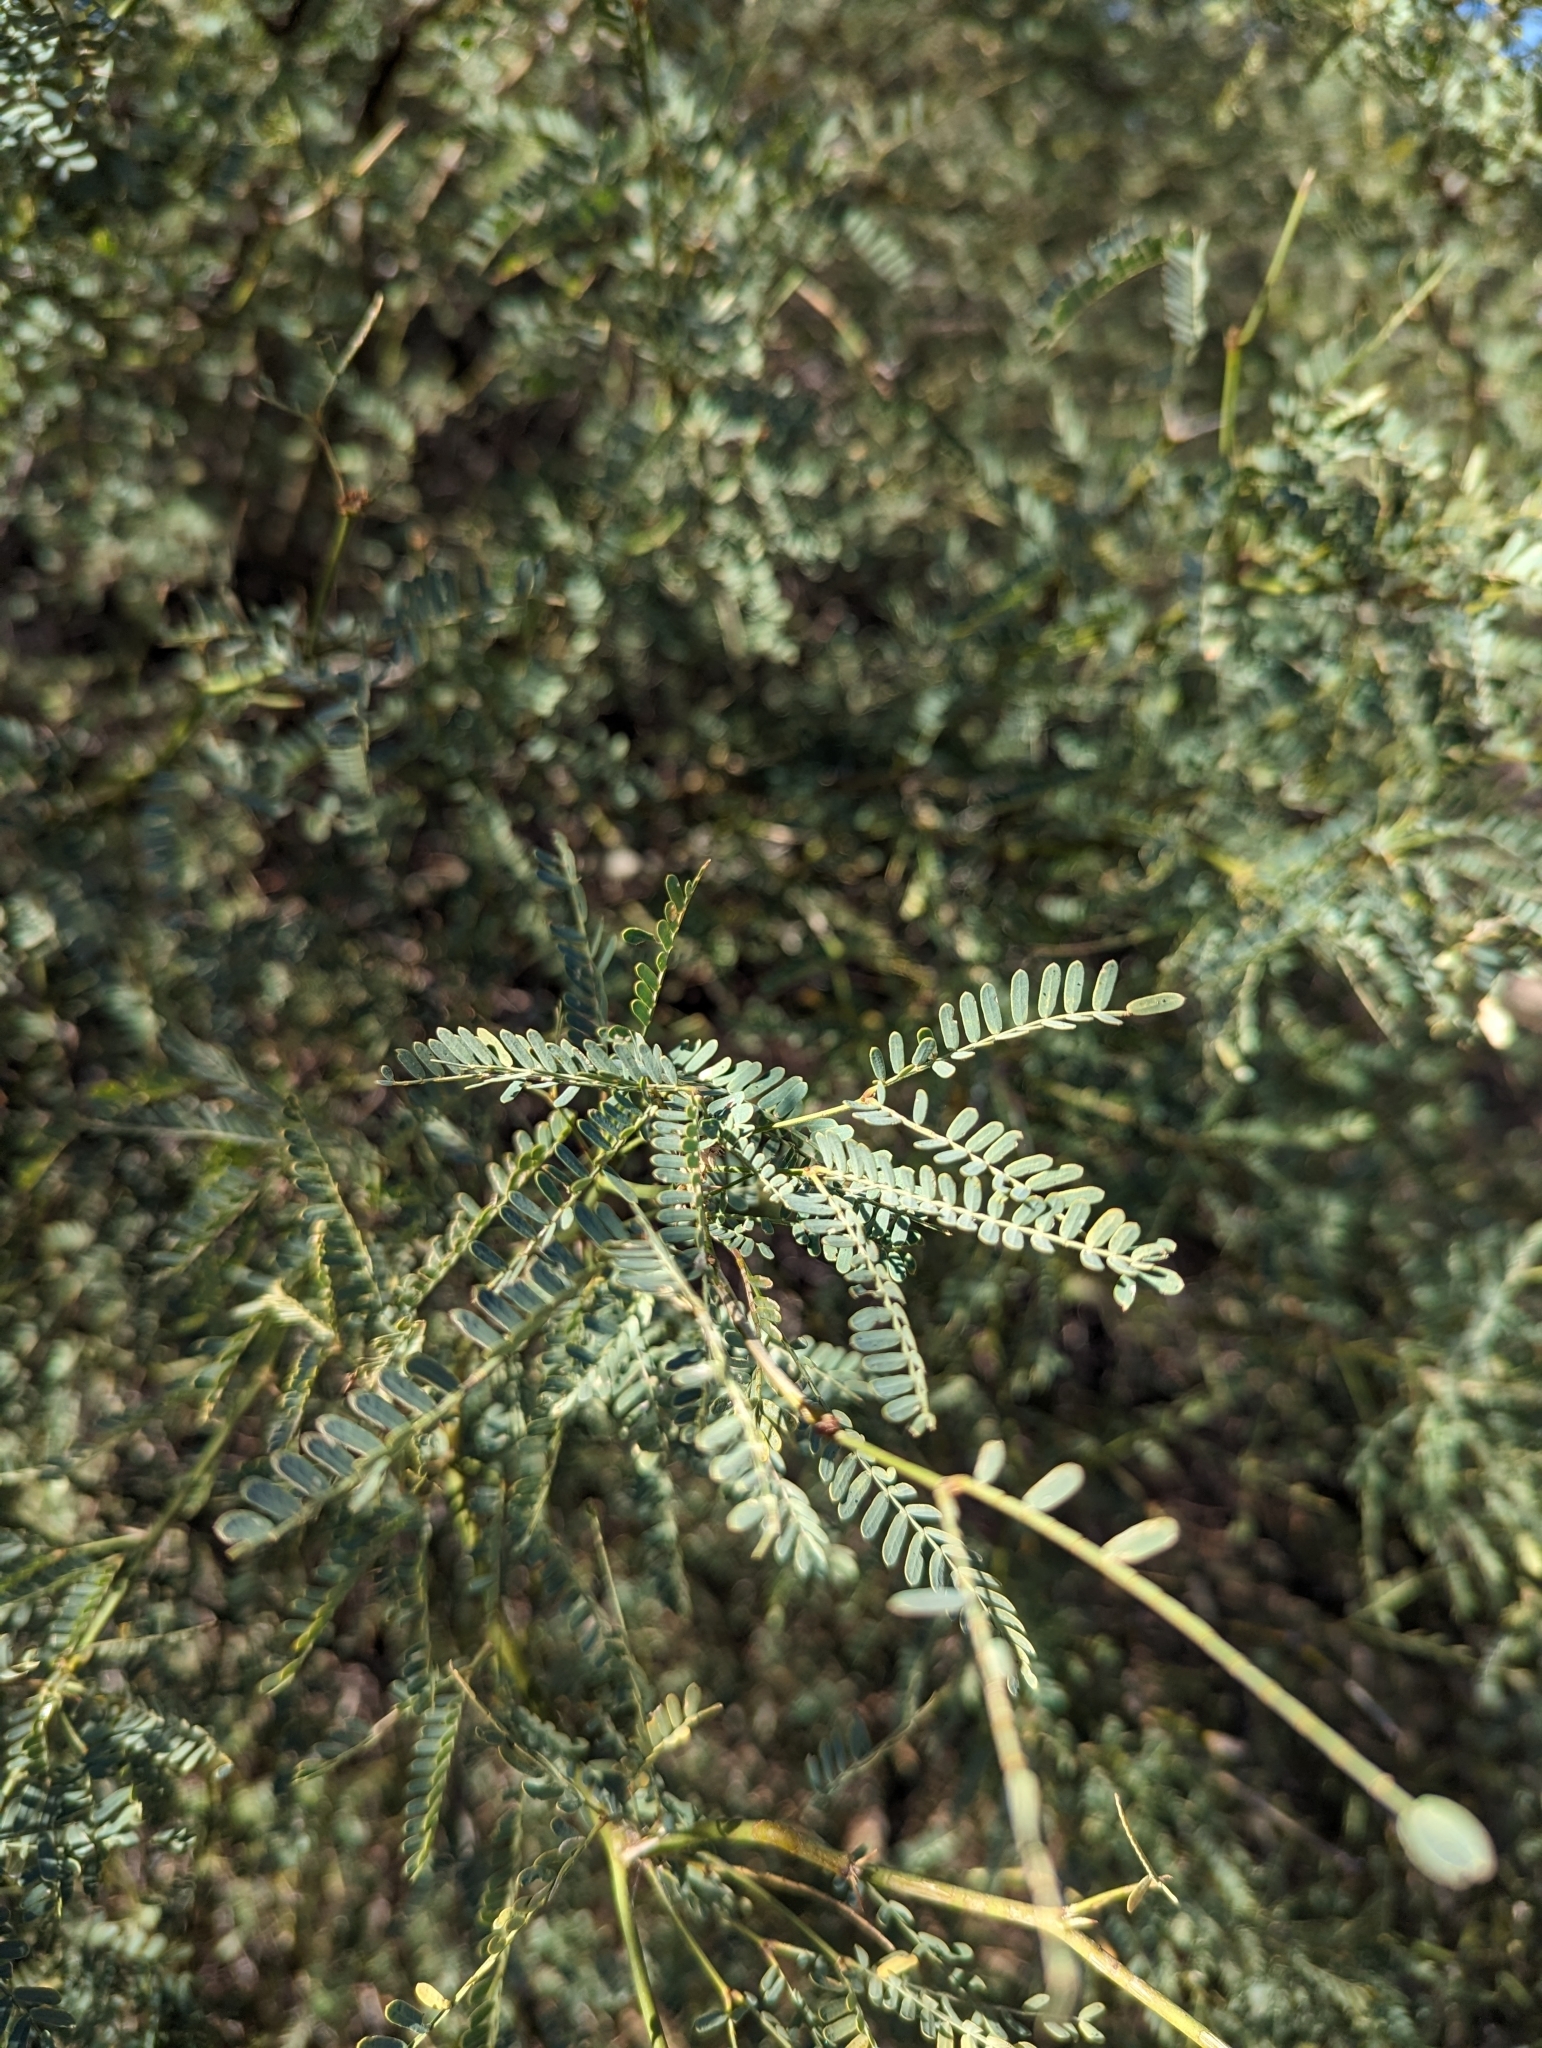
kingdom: Plantae
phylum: Tracheophyta
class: Magnoliopsida
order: Fabales
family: Fabaceae
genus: Prosopis
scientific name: Prosopis articulata
